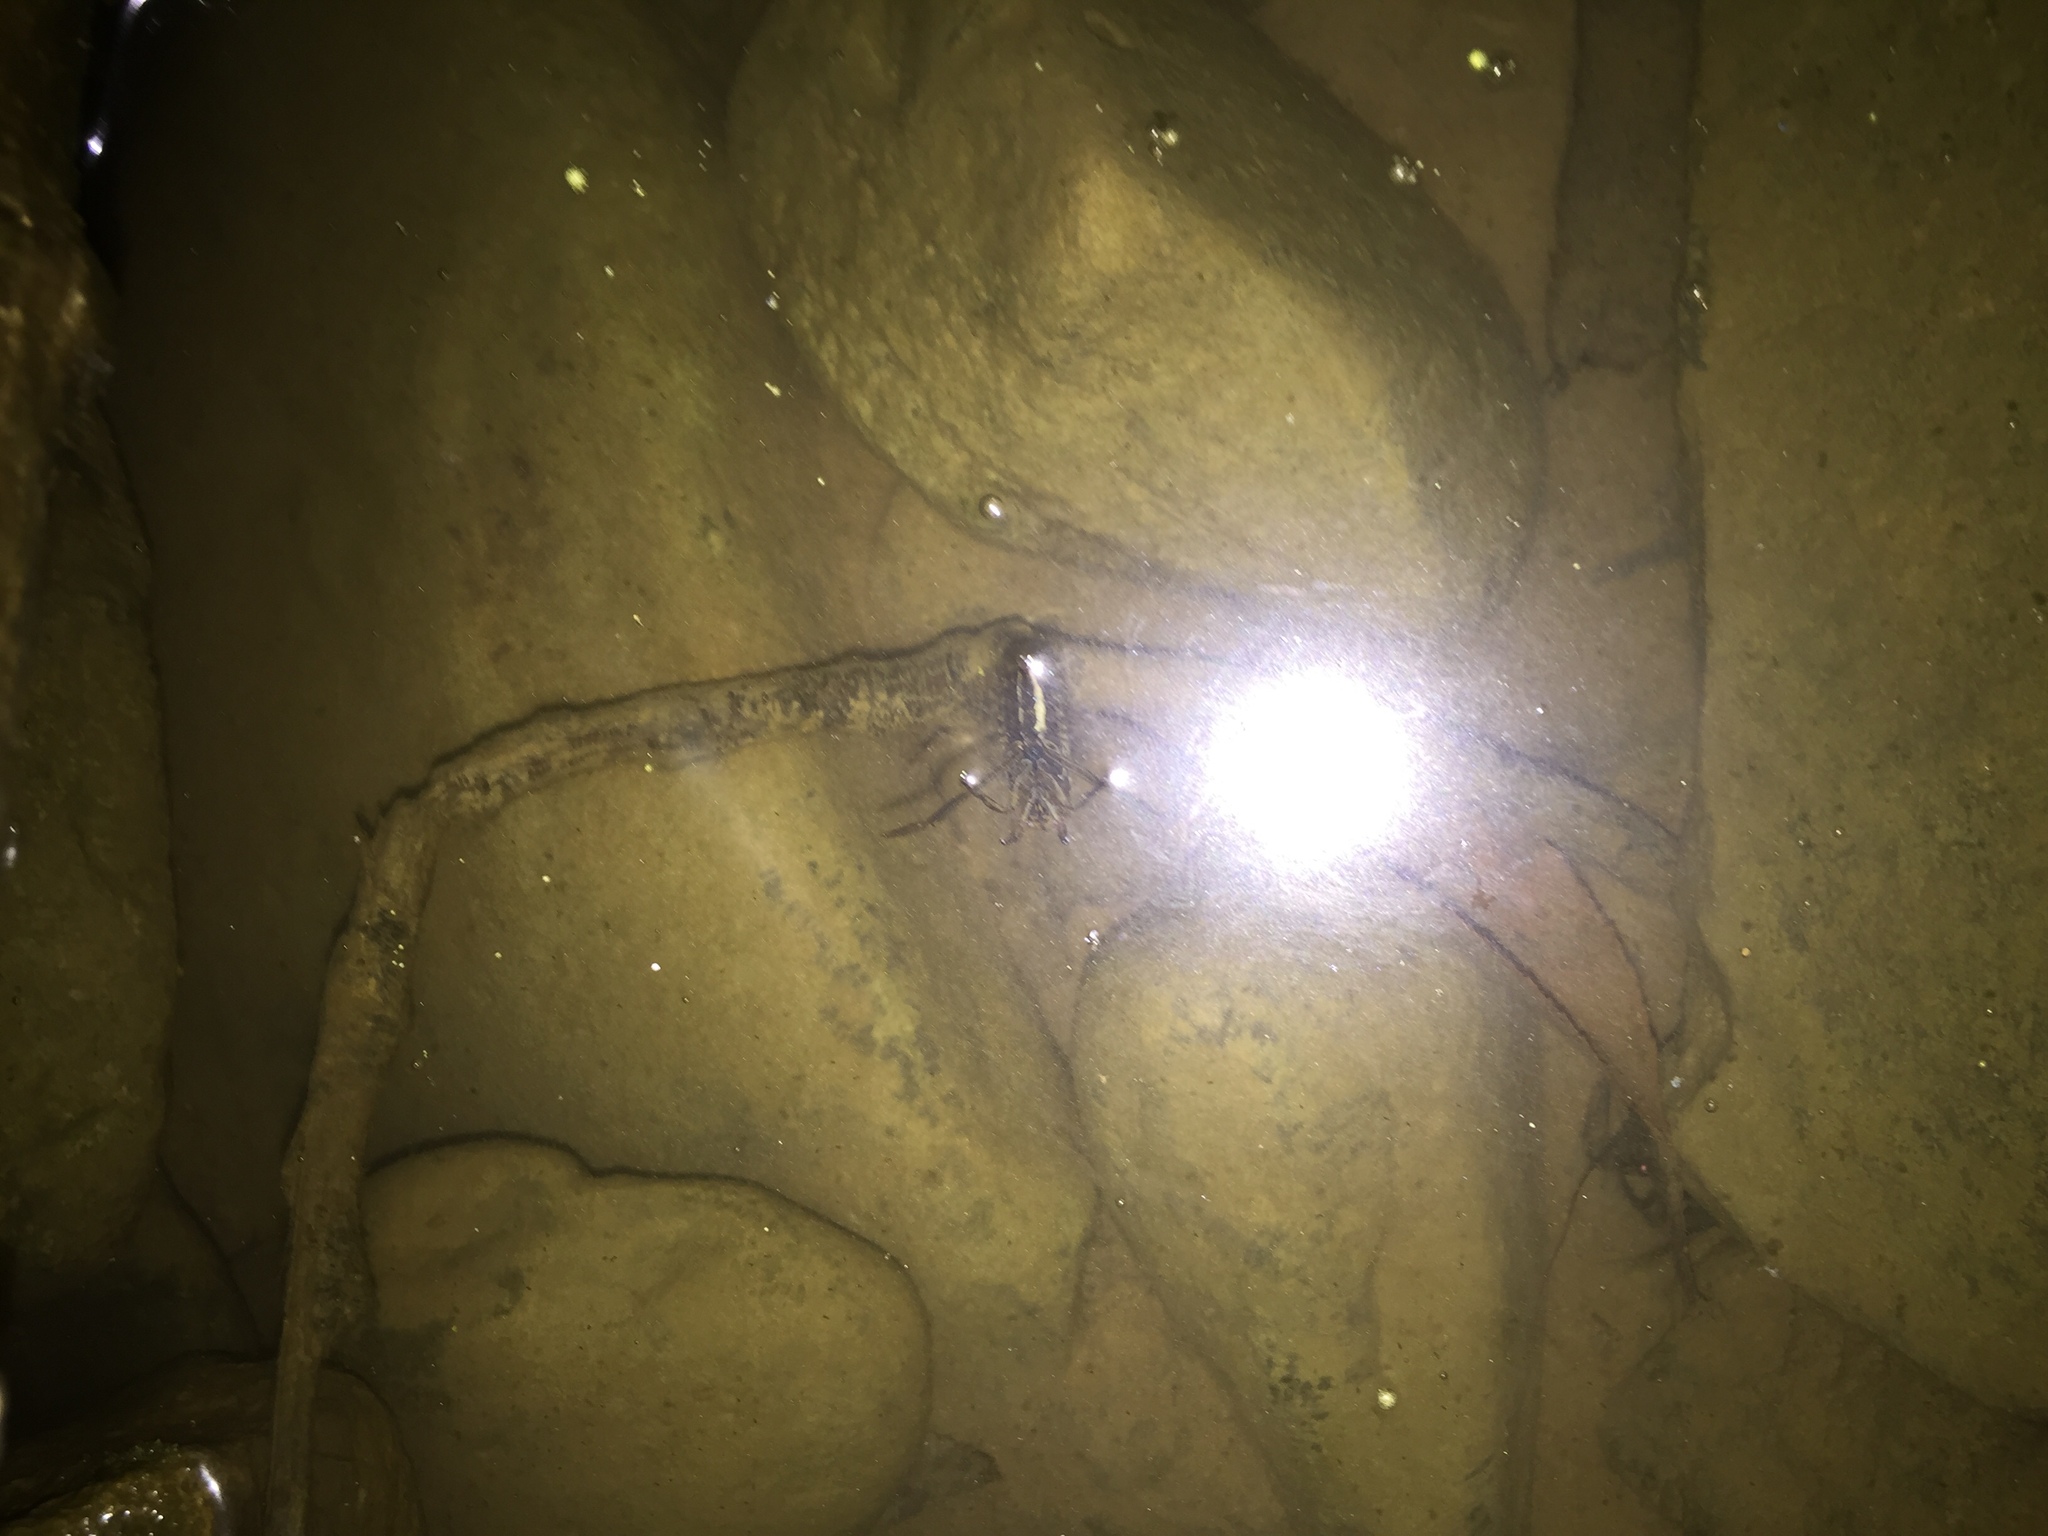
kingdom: Animalia
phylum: Arthropoda
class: Insecta
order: Hemiptera
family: Notonectidae
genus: Notonecta
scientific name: Notonecta
